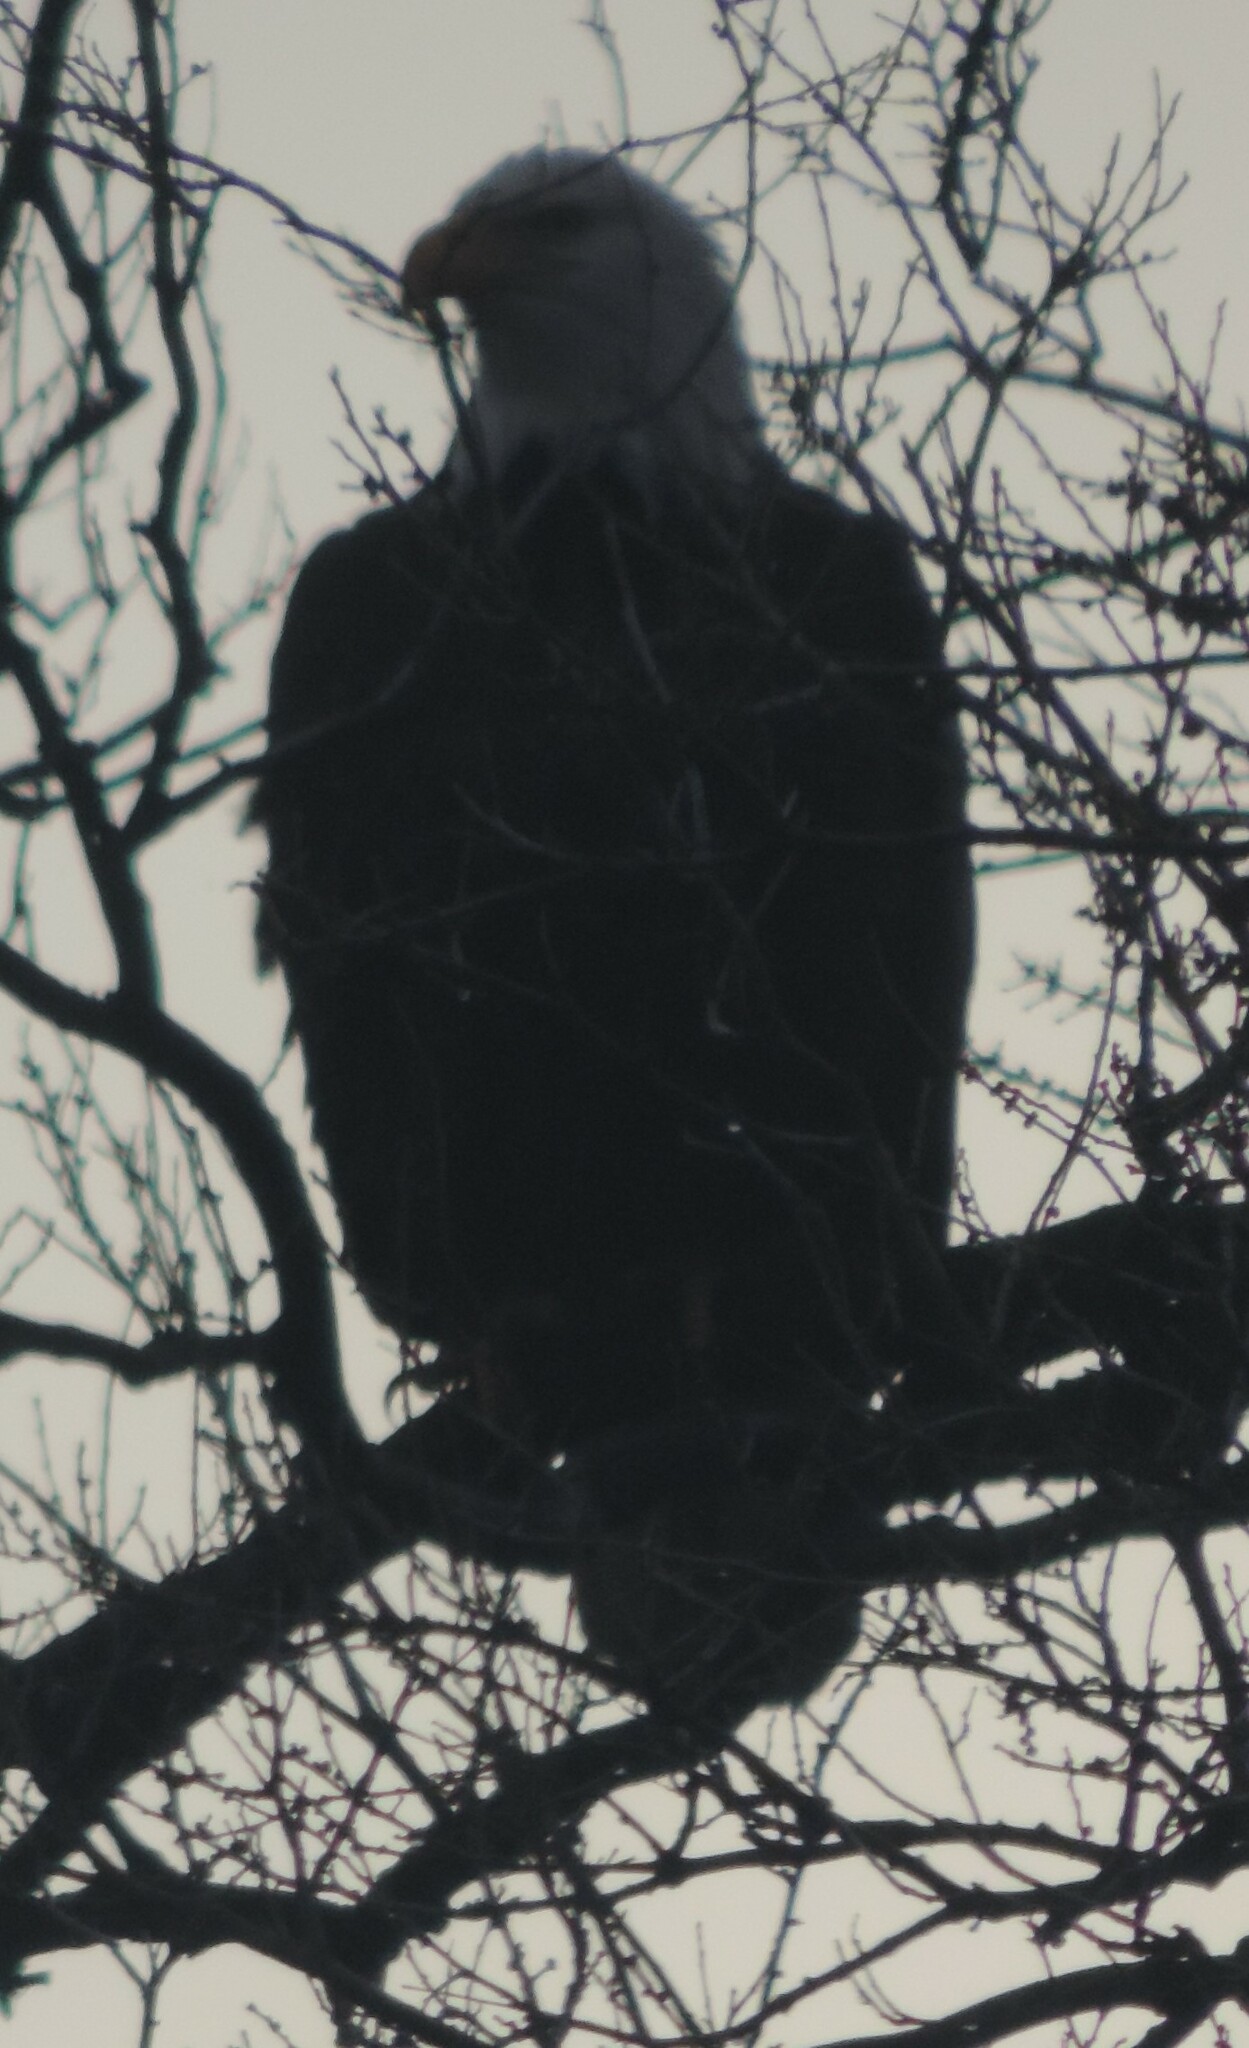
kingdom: Animalia
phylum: Chordata
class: Aves
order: Accipitriformes
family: Accipitridae
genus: Haliaeetus
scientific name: Haliaeetus leucocephalus
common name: Bald eagle
